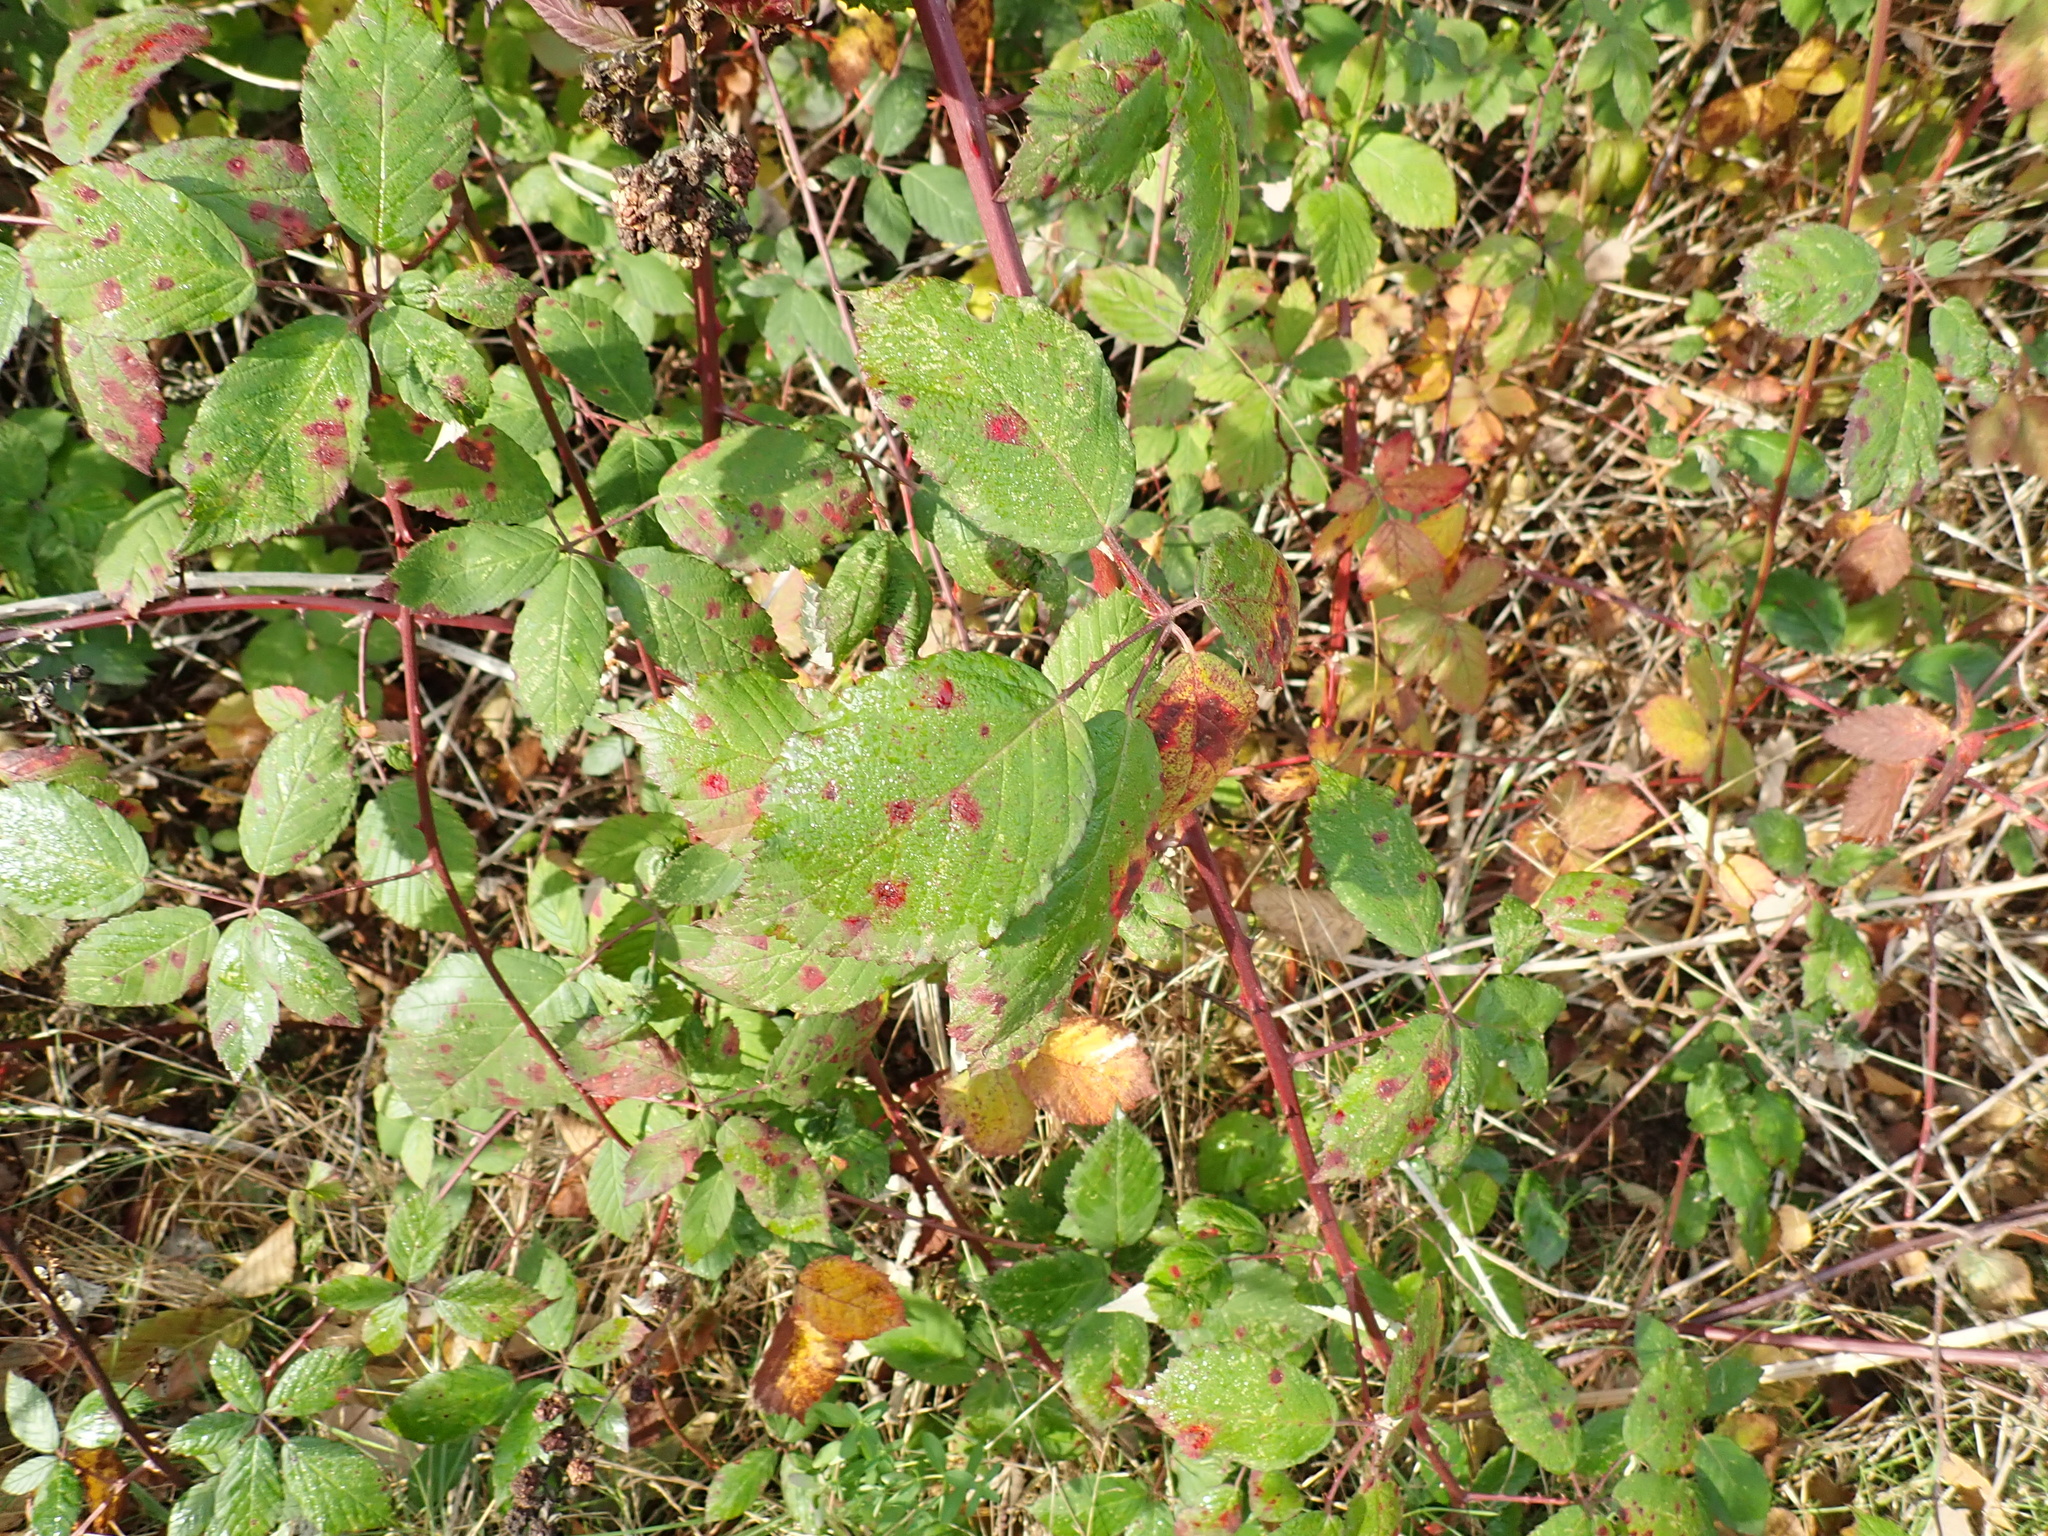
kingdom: Plantae
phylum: Tracheophyta
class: Magnoliopsida
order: Rosales
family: Rosaceae
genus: Rubus
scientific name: Rubus armeniacus
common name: Himalayan blackberry
